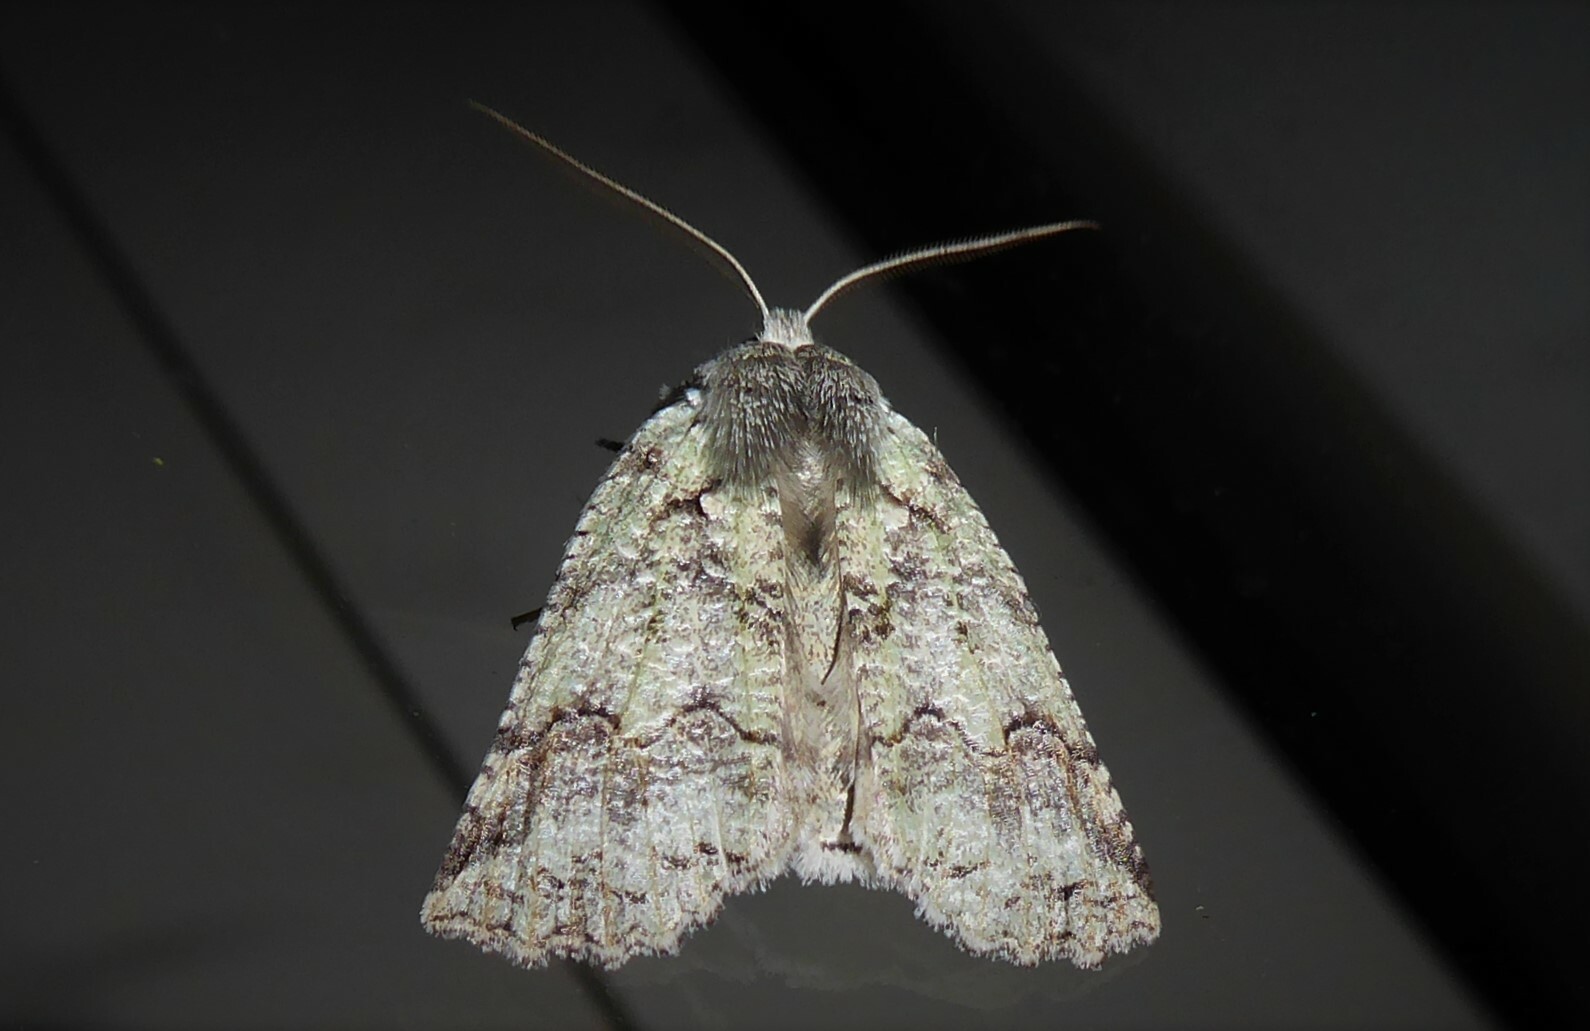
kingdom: Animalia
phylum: Arthropoda
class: Insecta
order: Lepidoptera
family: Geometridae
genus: Declana
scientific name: Declana floccosa
